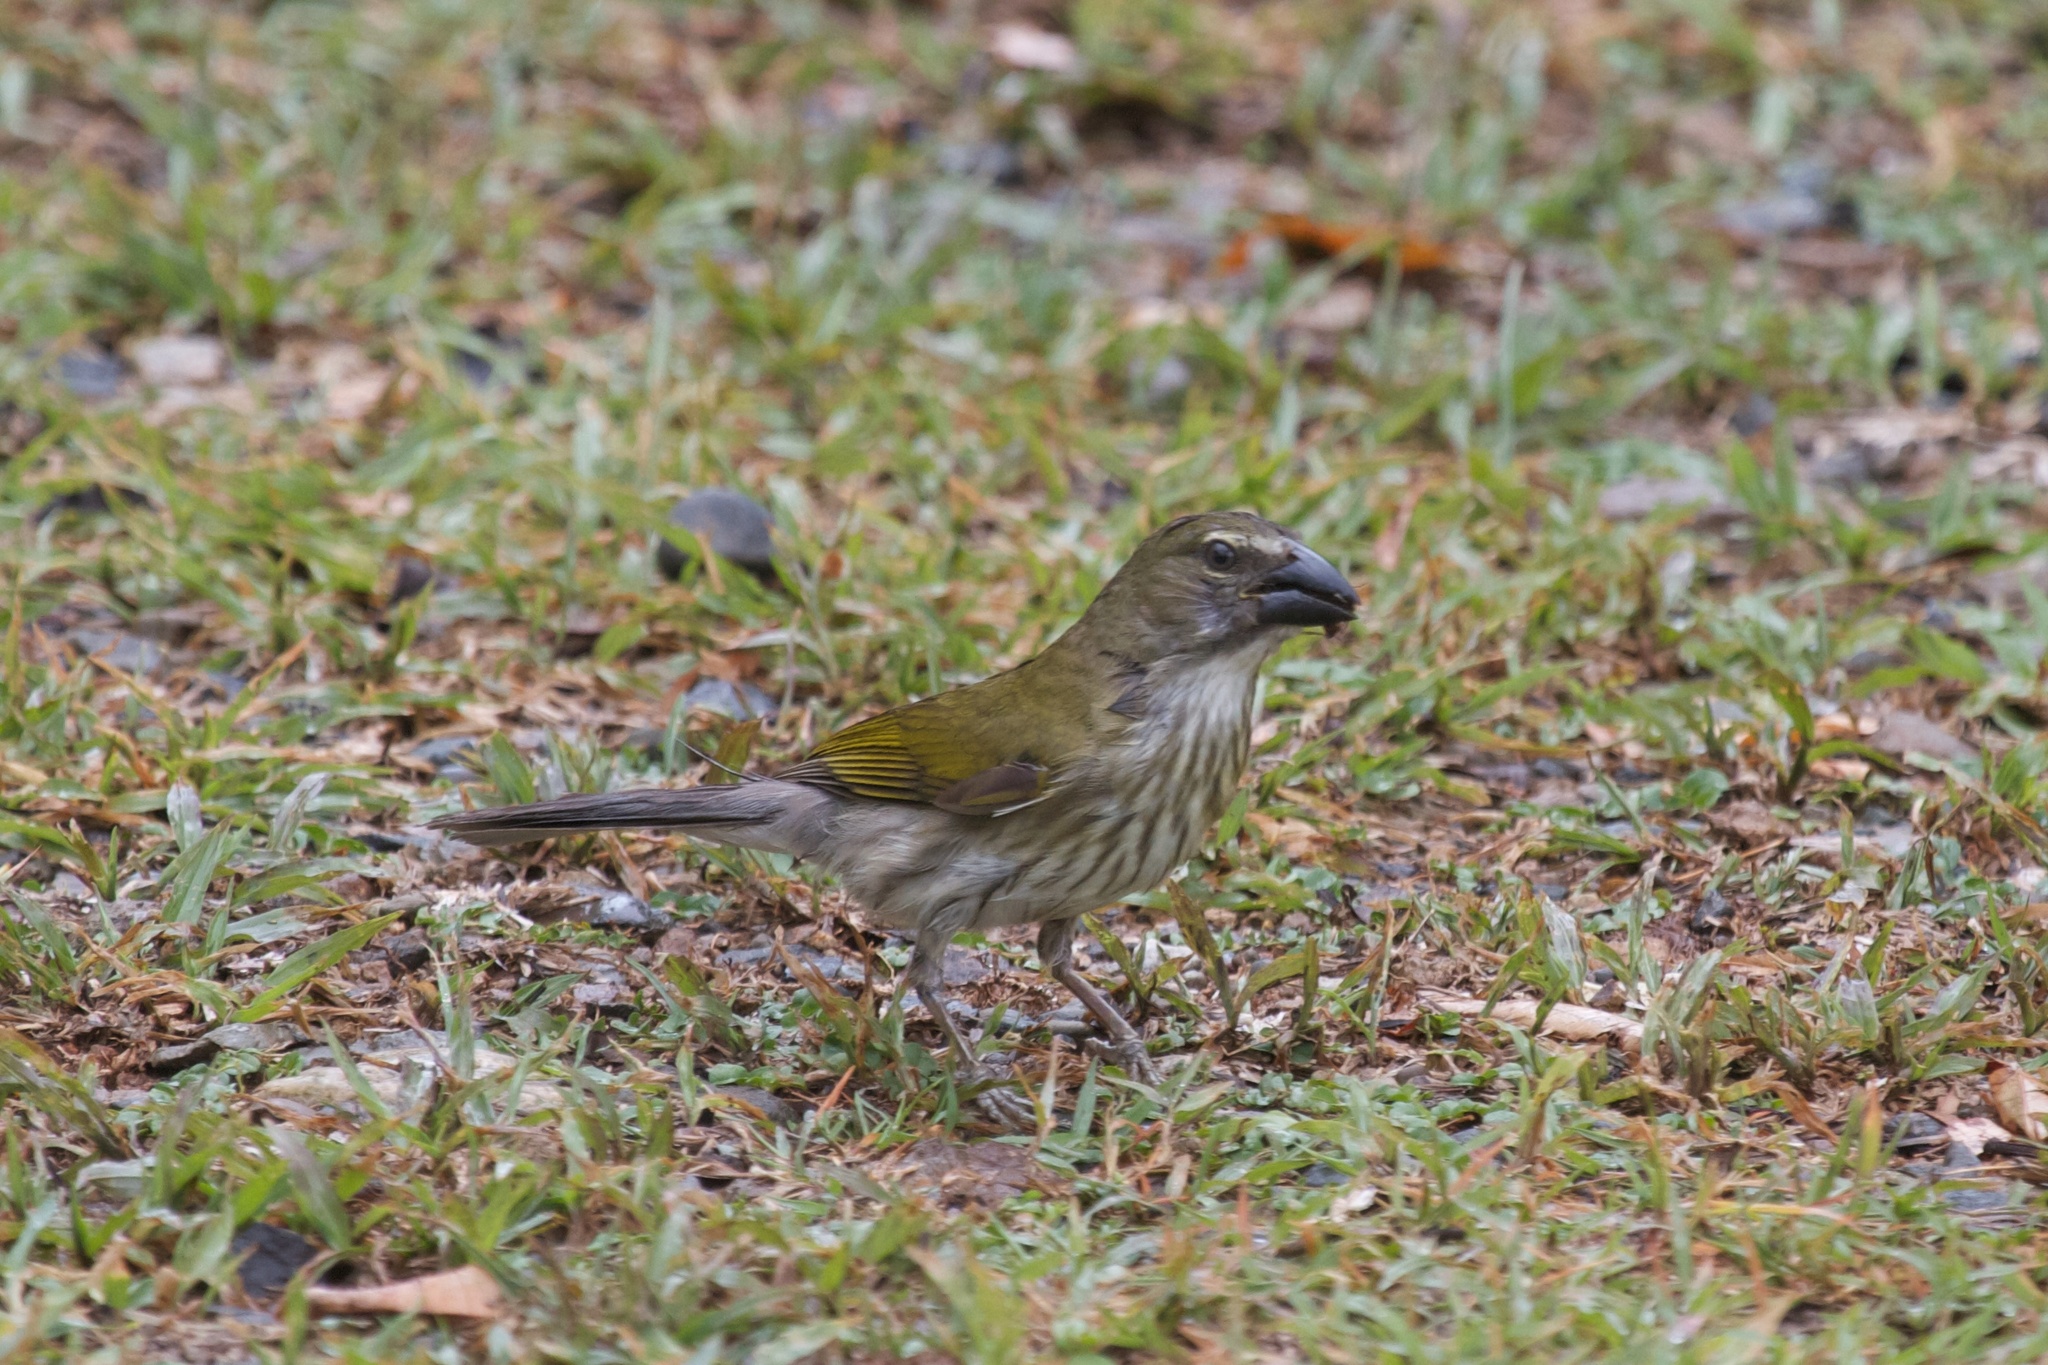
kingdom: Animalia
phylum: Chordata
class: Aves
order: Passeriformes
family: Thraupidae
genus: Saltator
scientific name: Saltator striatipectus
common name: Streaked saltator
